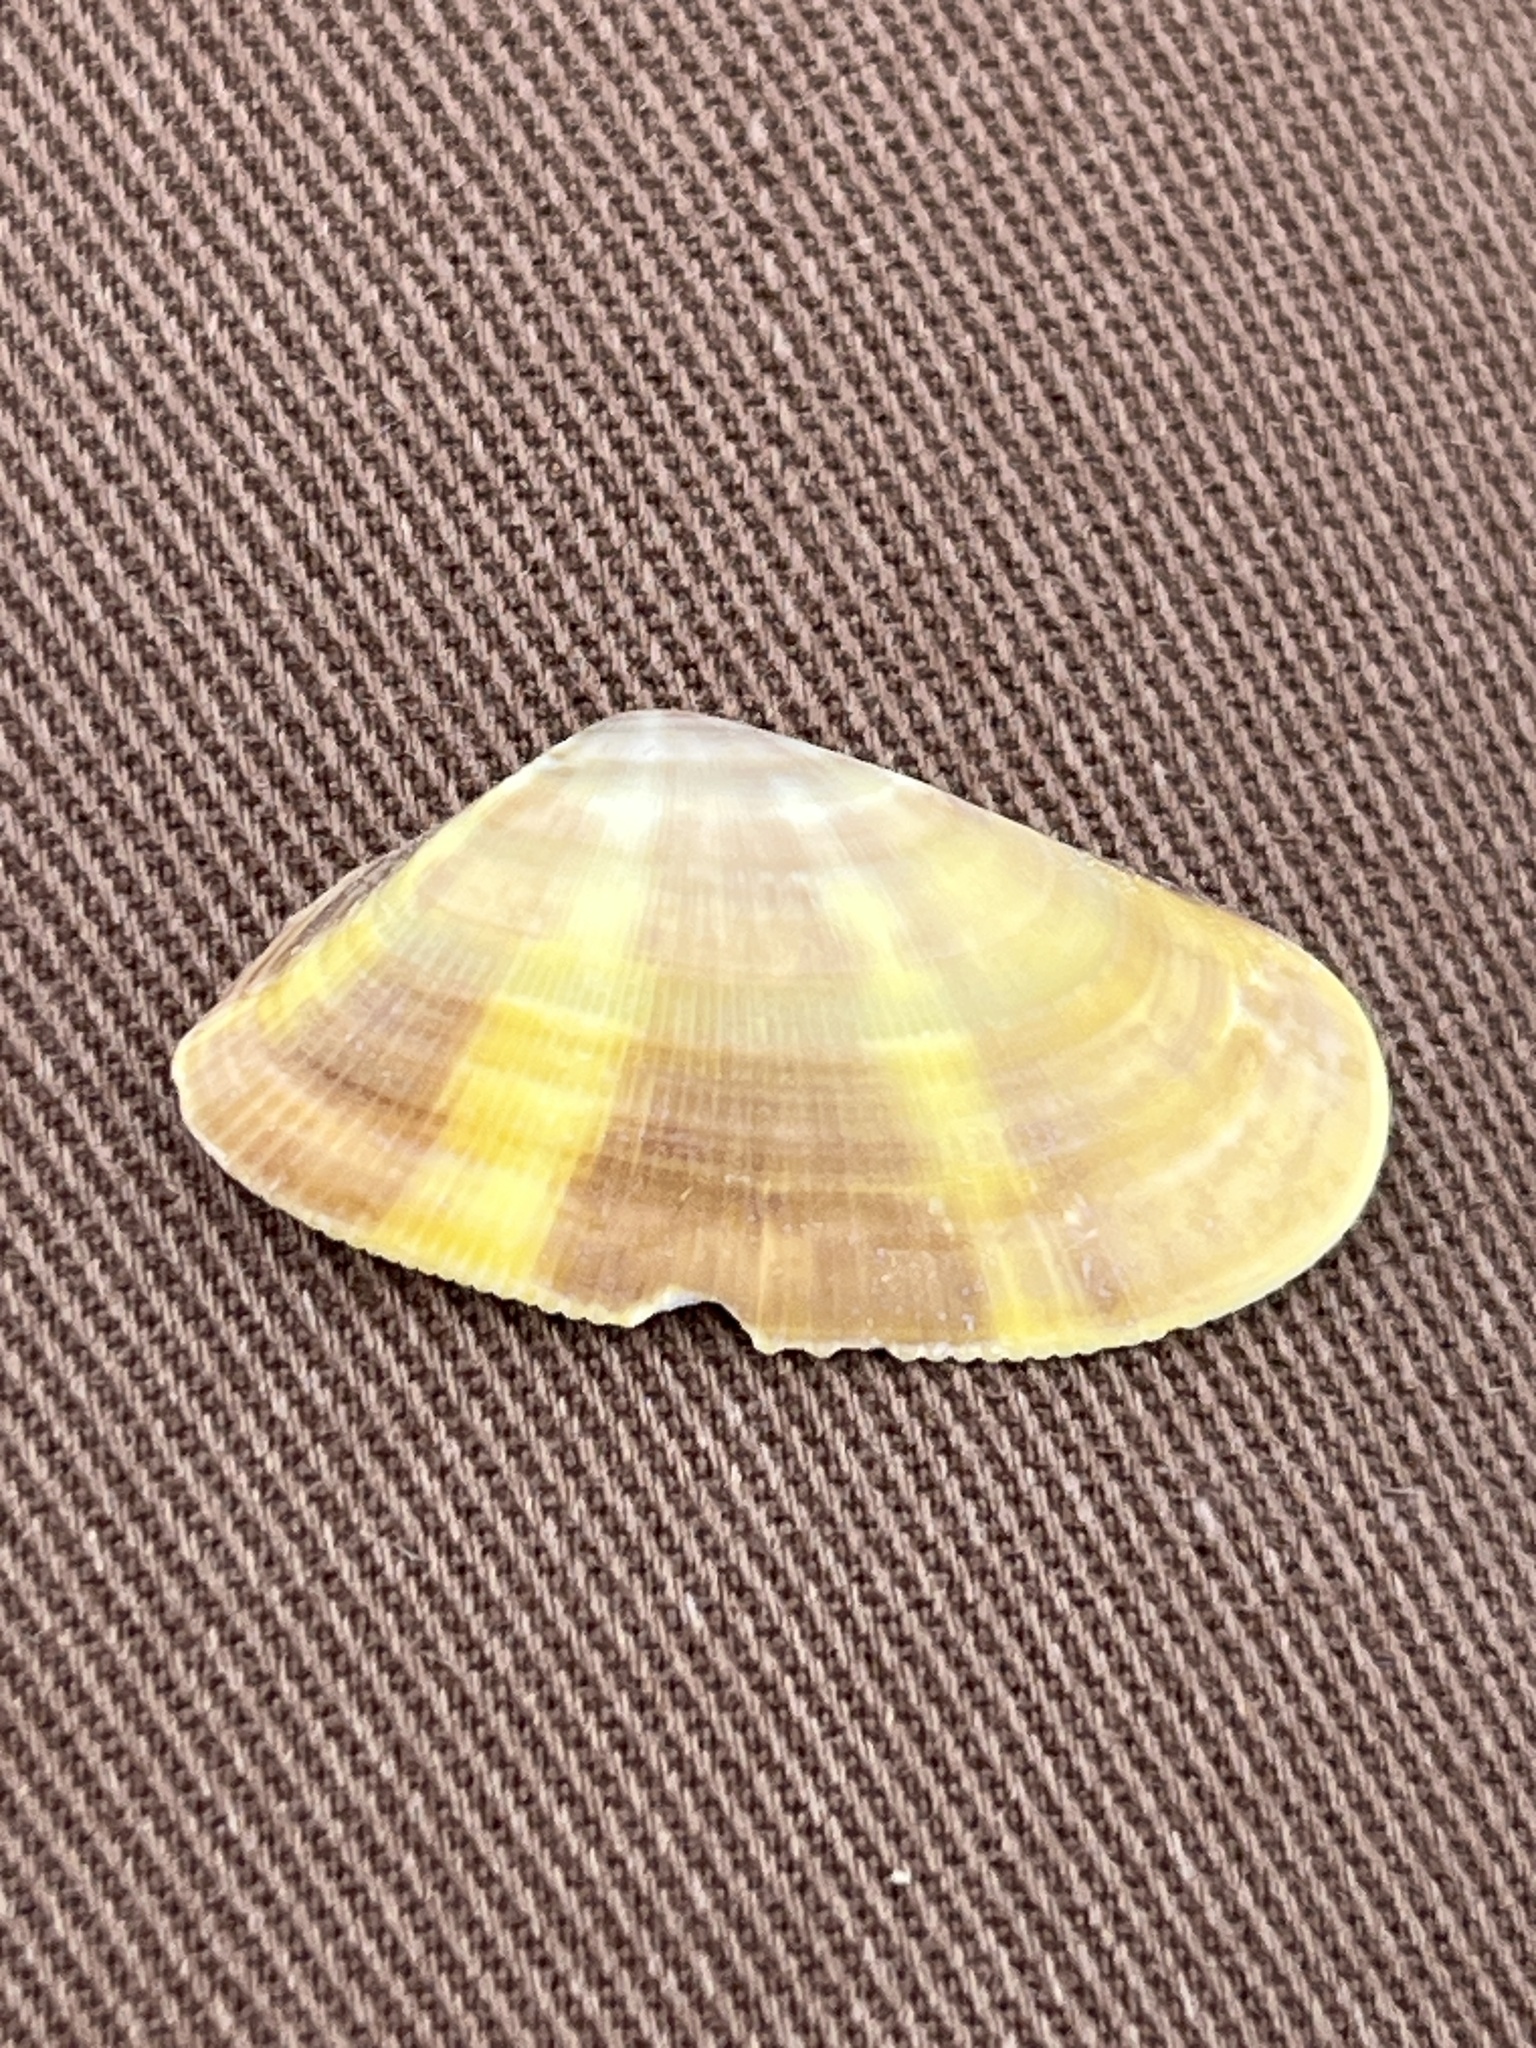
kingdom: Animalia
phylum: Mollusca
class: Bivalvia
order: Cardiida
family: Donacidae
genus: Donax
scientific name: Donax semistriatus
